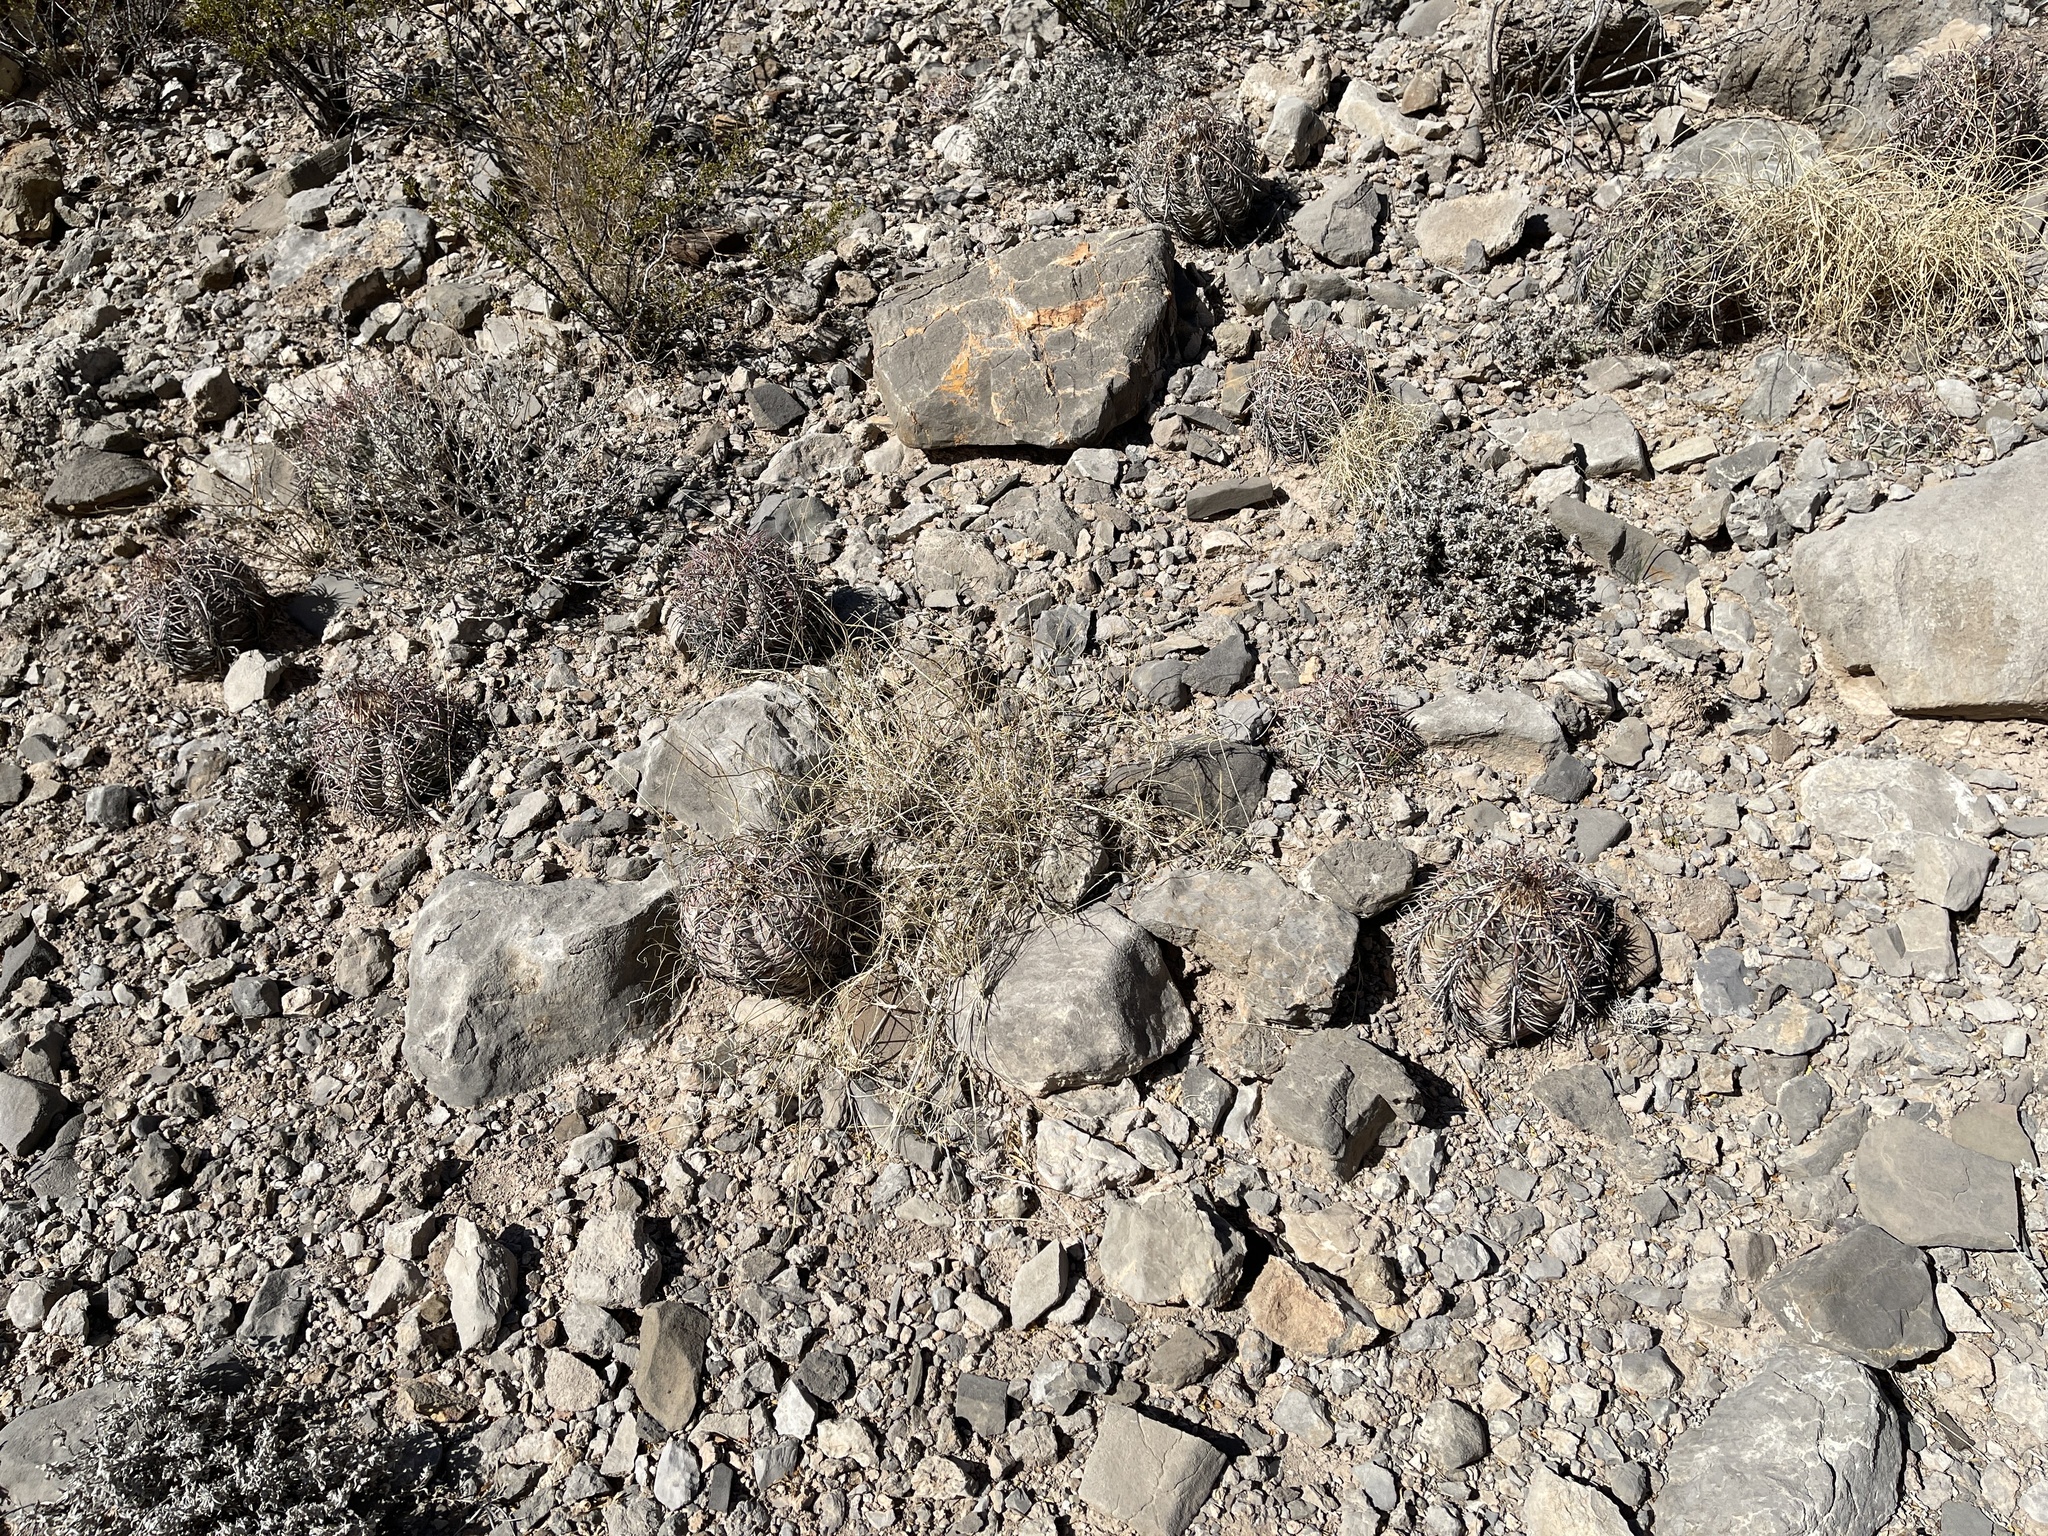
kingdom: Plantae
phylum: Tracheophyta
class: Magnoliopsida
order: Caryophyllales
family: Cactaceae
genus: Echinocactus
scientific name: Echinocactus horizonthalonius
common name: Devilshead
